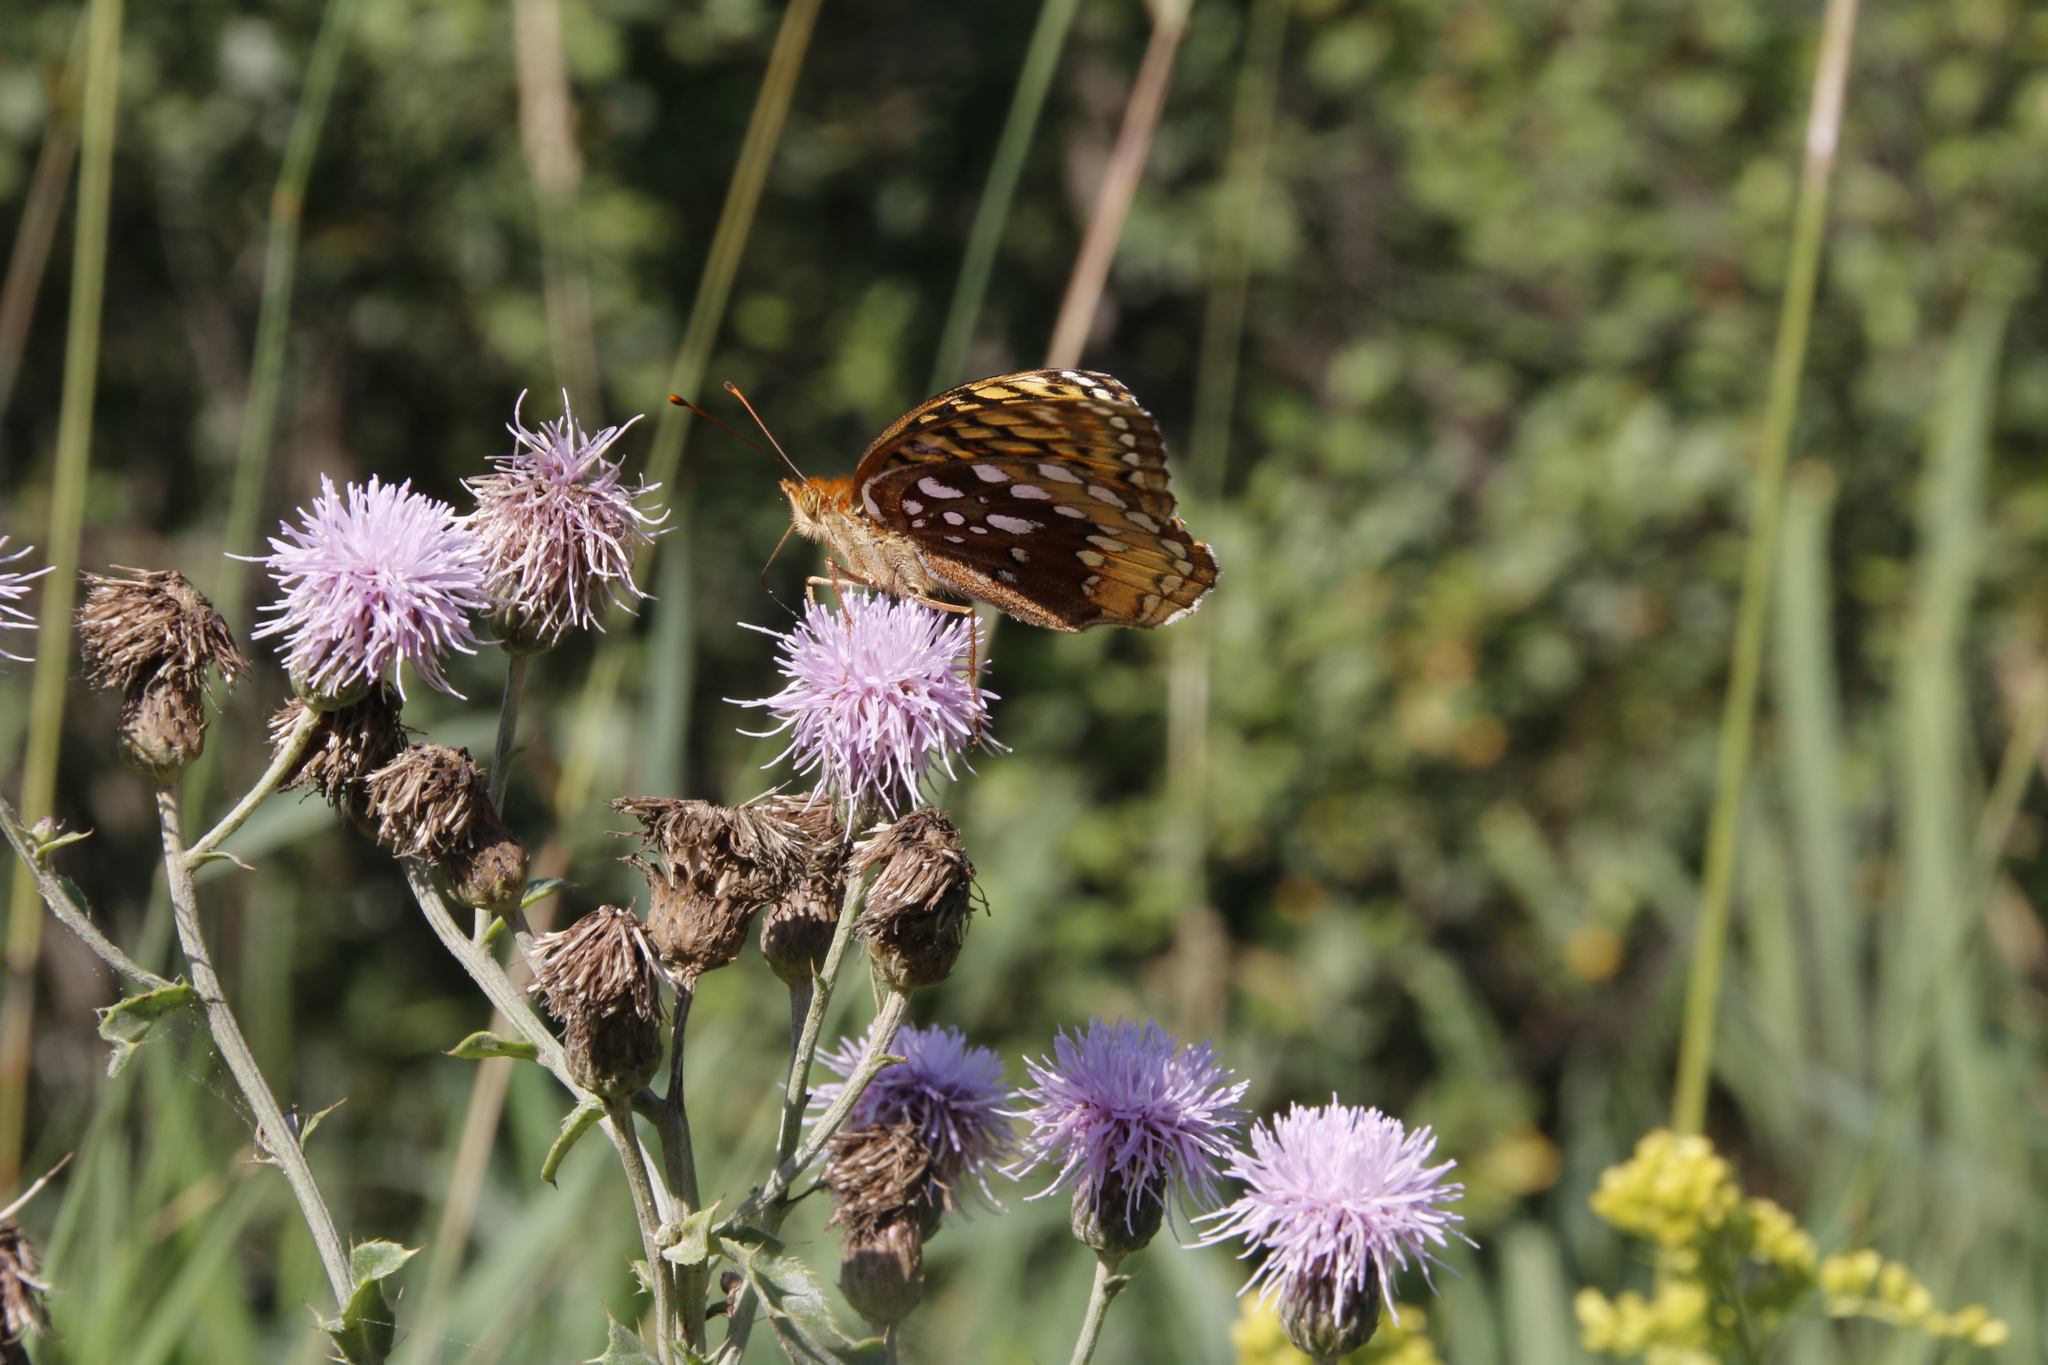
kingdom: Animalia
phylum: Arthropoda
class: Insecta
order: Lepidoptera
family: Nymphalidae
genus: Speyeria
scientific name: Speyeria cybele
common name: Great spangled fritillary
